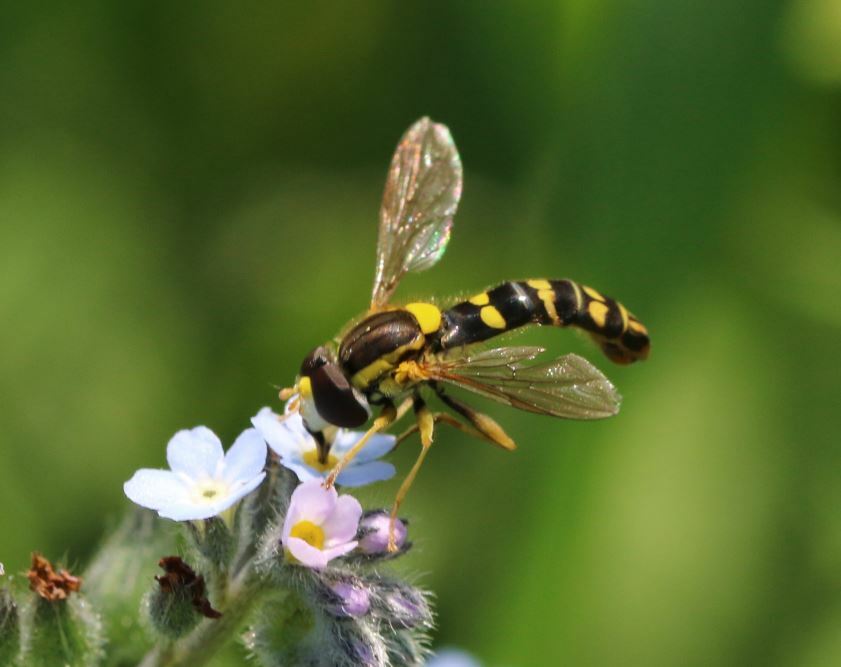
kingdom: Animalia
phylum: Arthropoda
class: Insecta
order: Diptera
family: Syrphidae
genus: Sphaerophoria
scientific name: Sphaerophoria scripta
